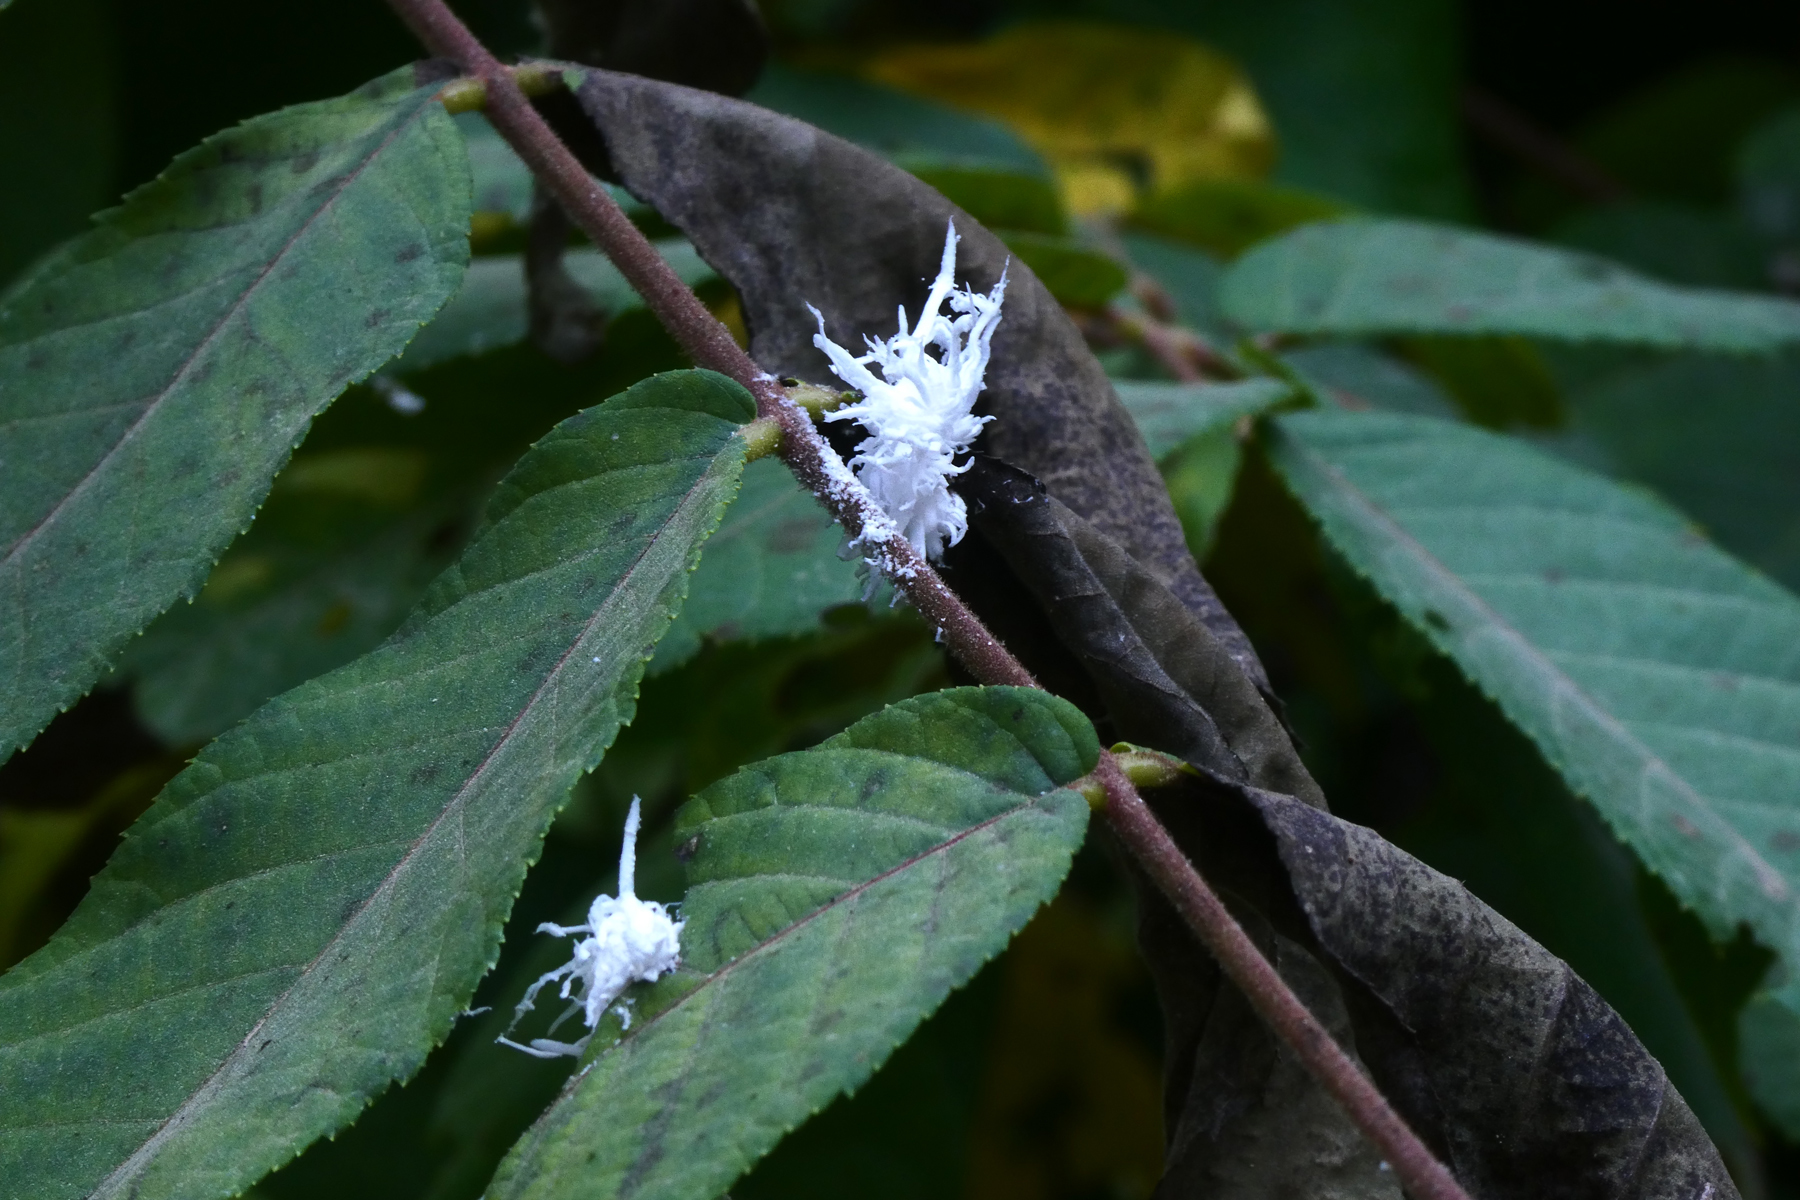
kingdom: Animalia
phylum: Arthropoda
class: Insecta
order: Hymenoptera
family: Tenthredinidae
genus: Eriocampa
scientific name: Eriocampa juglandis
